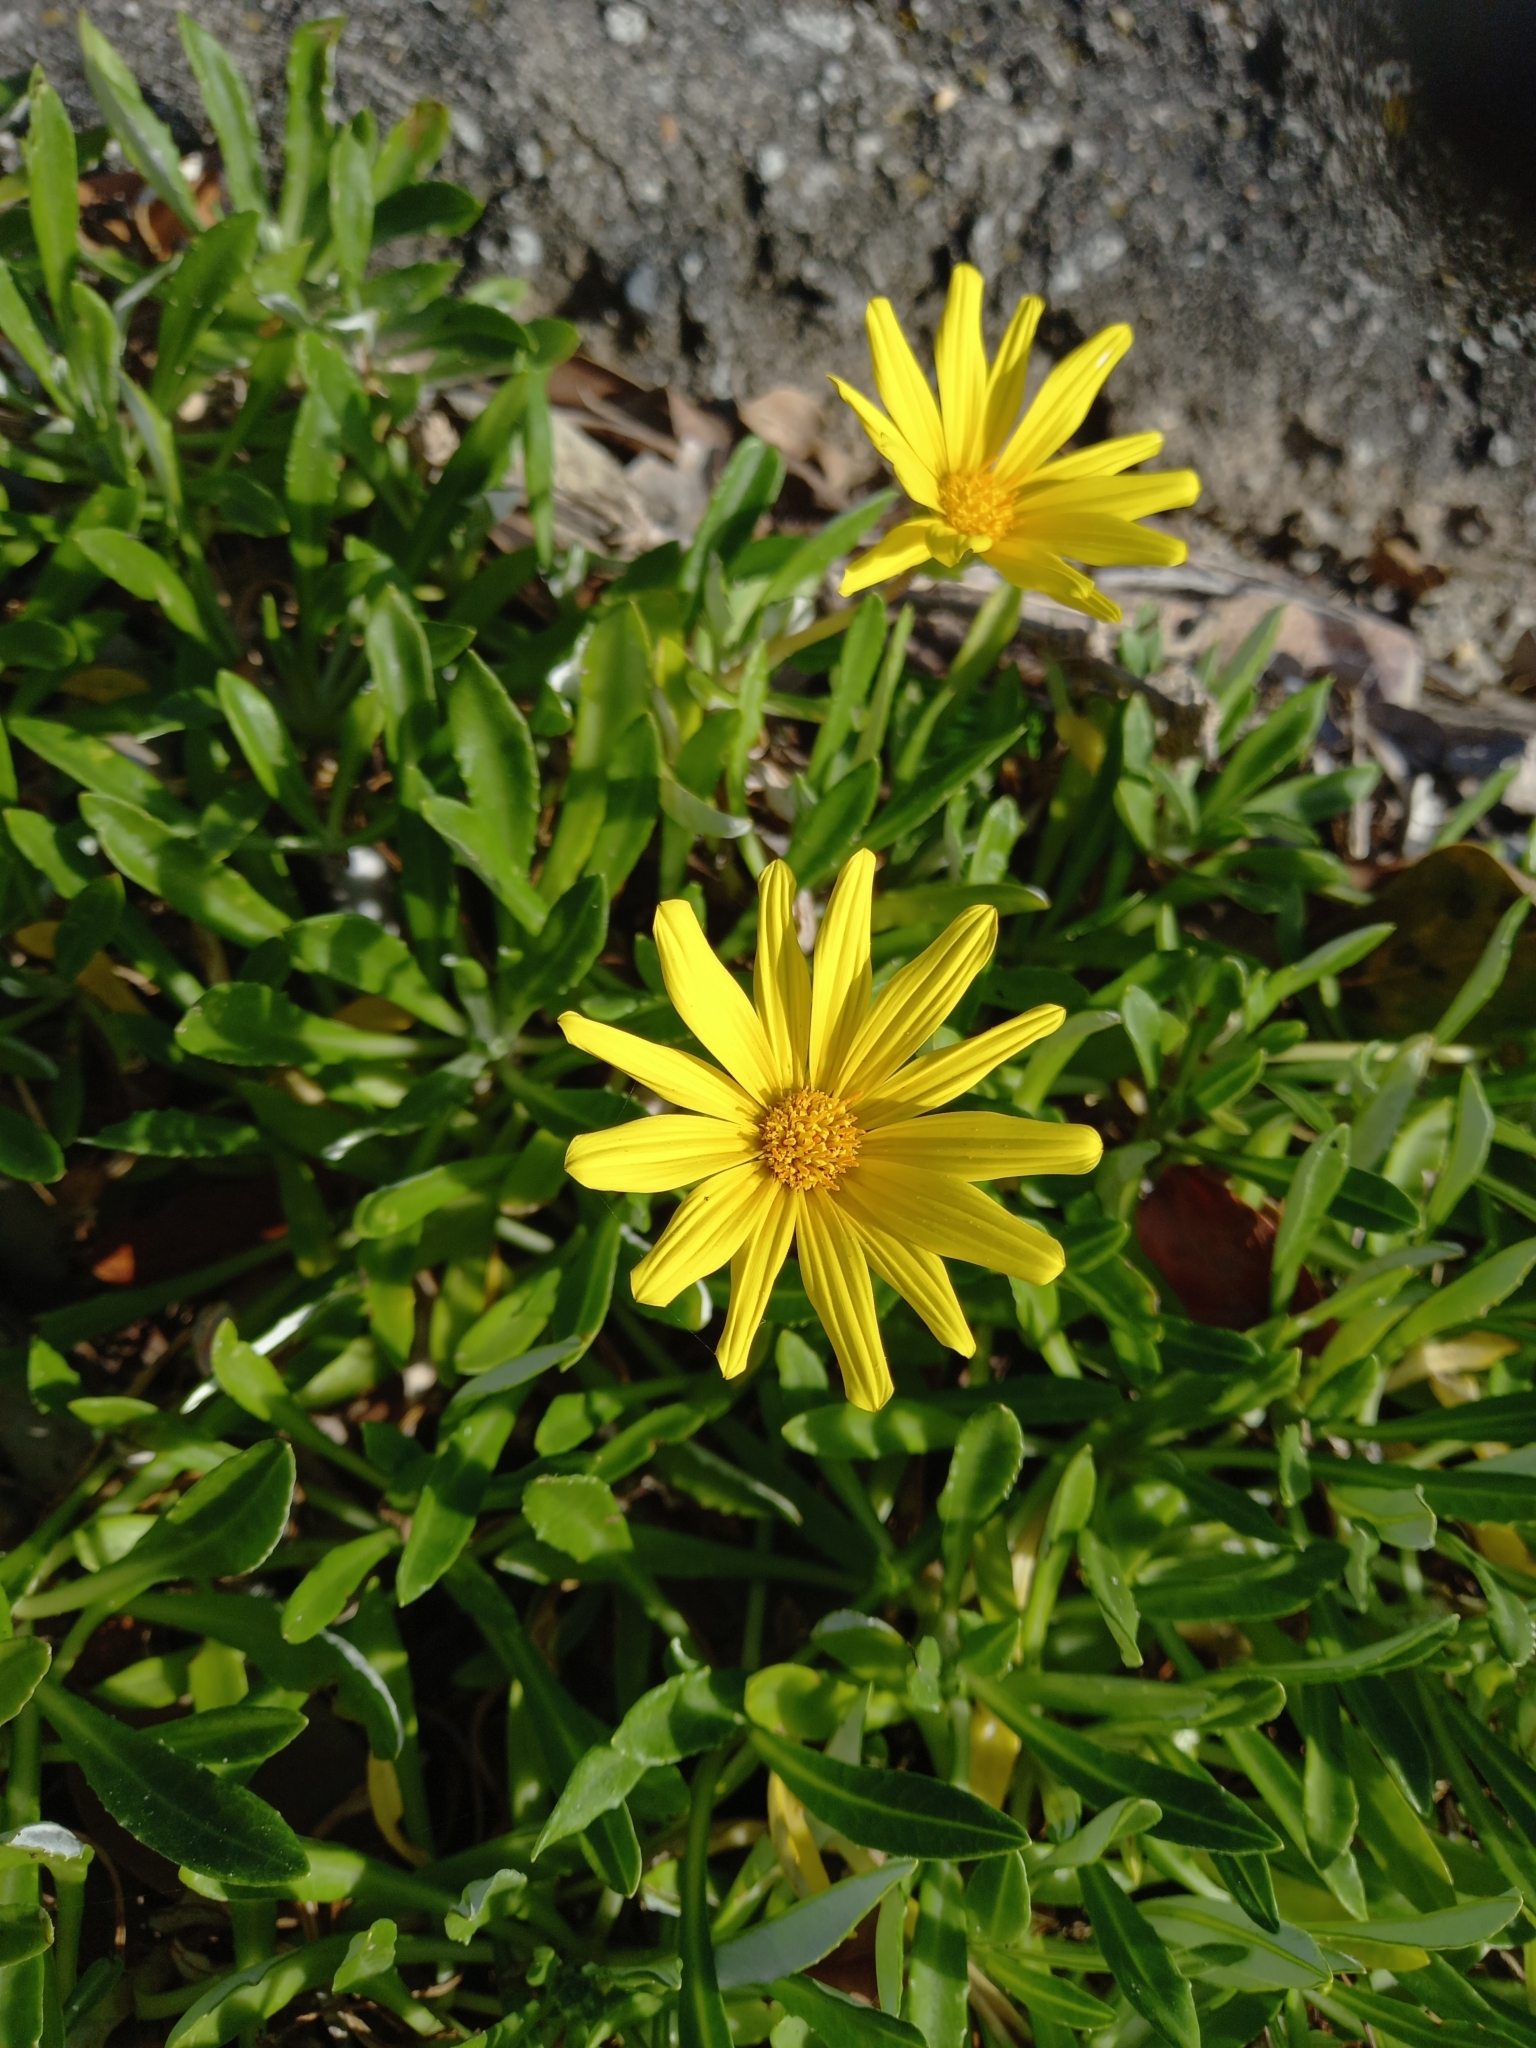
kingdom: Plantae
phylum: Tracheophyta
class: Magnoliopsida
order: Asterales
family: Asteraceae
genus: Gazania
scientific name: Gazania rigens
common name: Treasureflower
